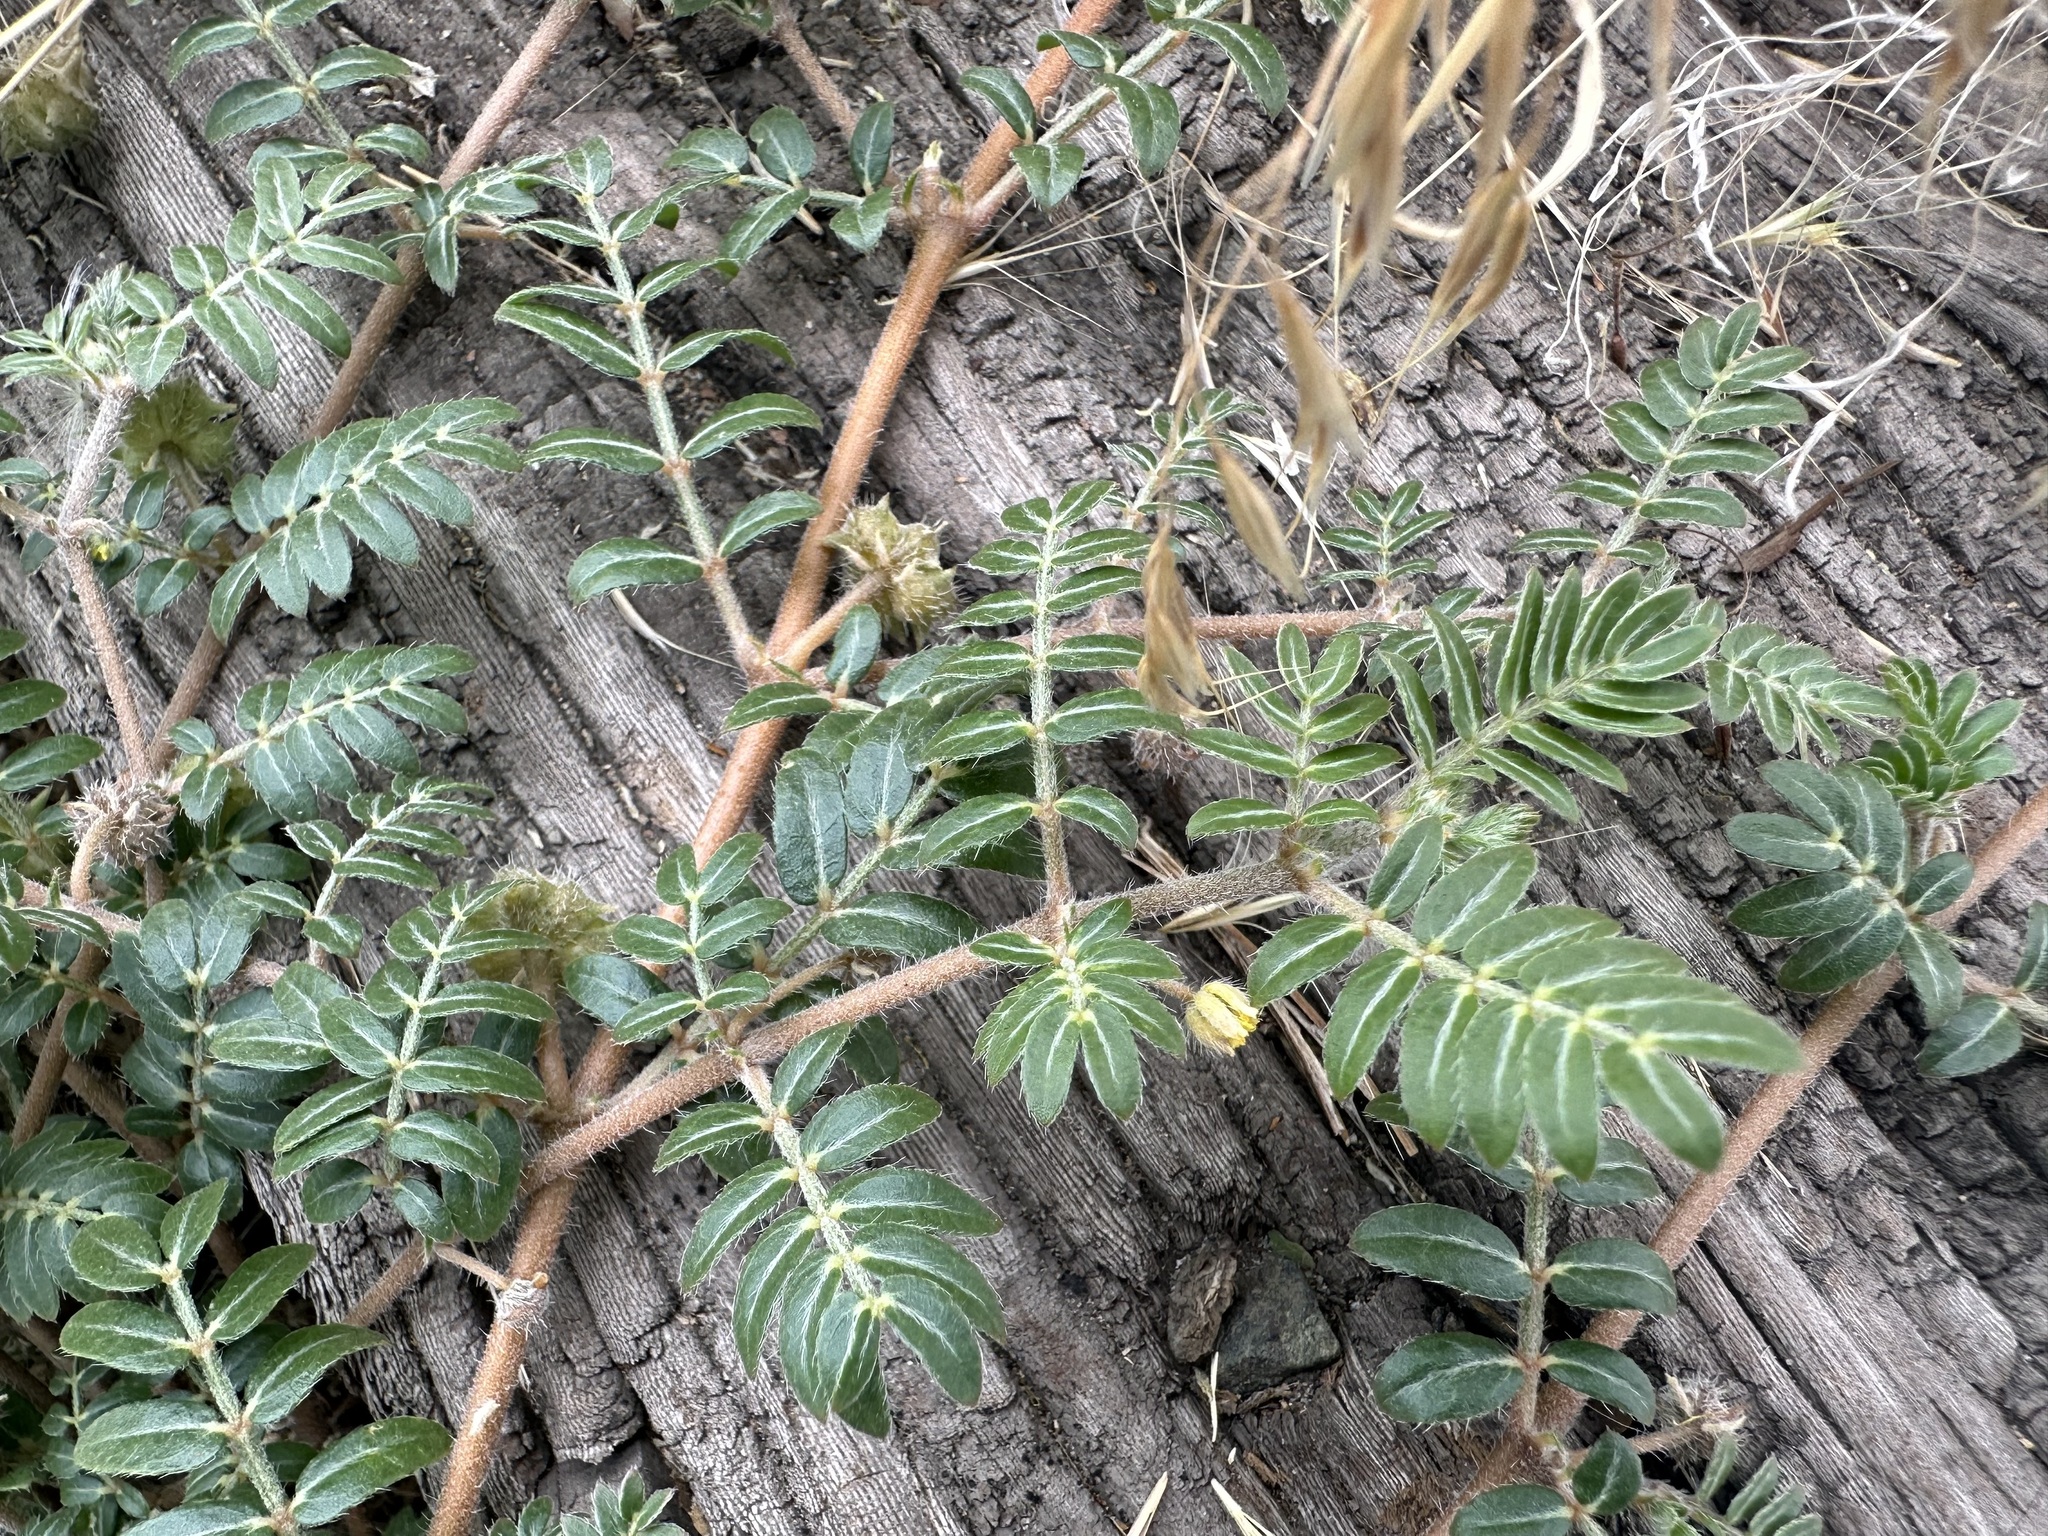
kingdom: Plantae
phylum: Tracheophyta
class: Magnoliopsida
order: Zygophyllales
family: Zygophyllaceae
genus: Tribulus
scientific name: Tribulus terrestris
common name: Puncturevine
